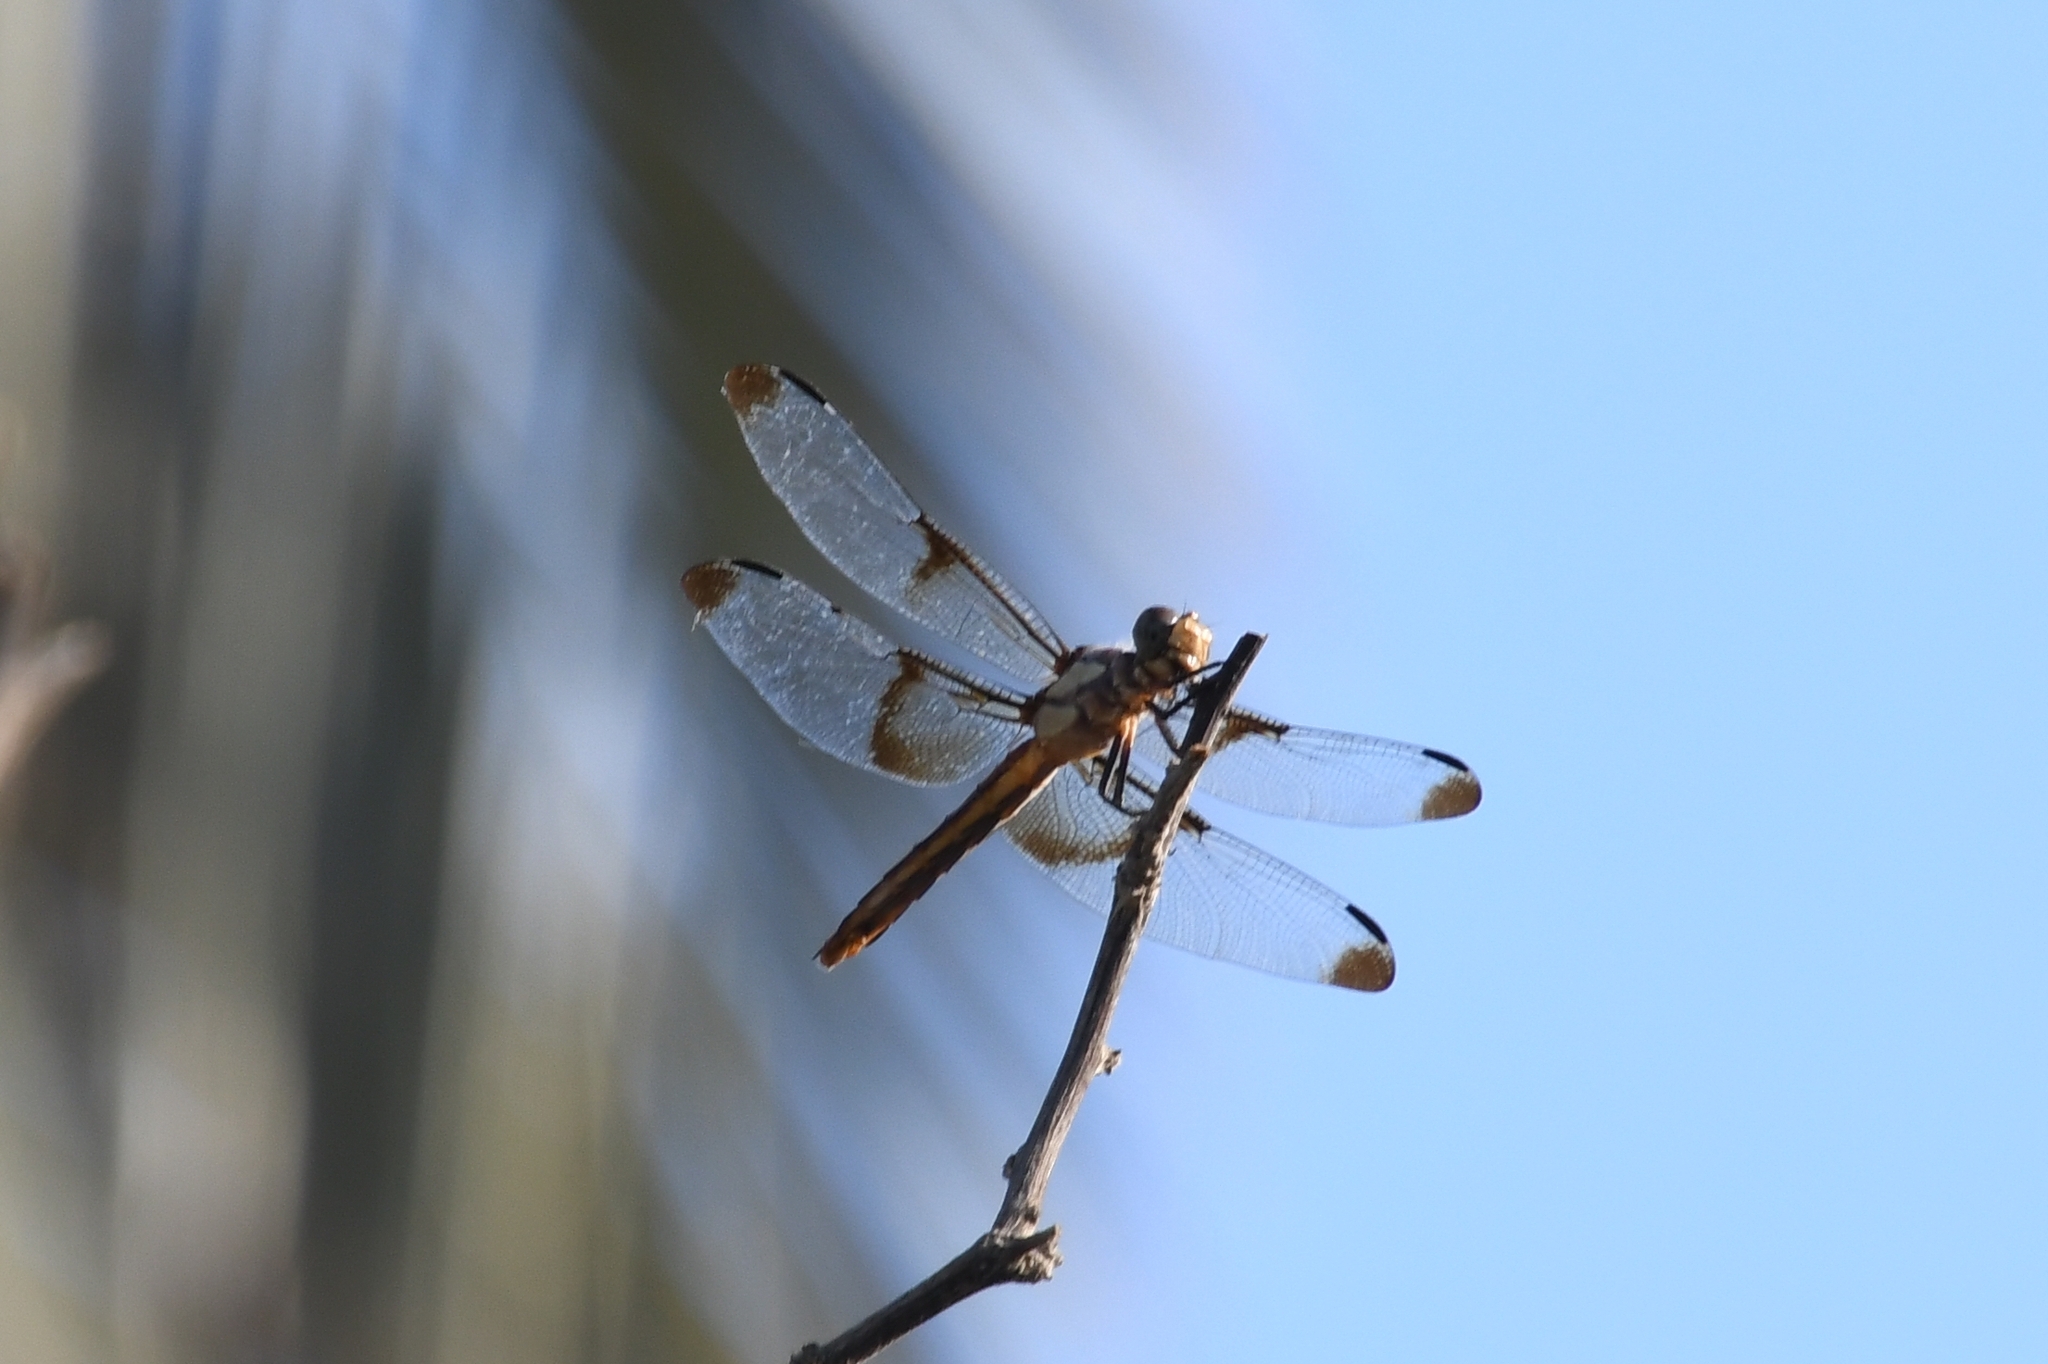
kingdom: Animalia
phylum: Arthropoda
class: Insecta
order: Odonata
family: Libellulidae
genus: Libellula
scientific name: Libellula luctuosa
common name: Widow skimmer
